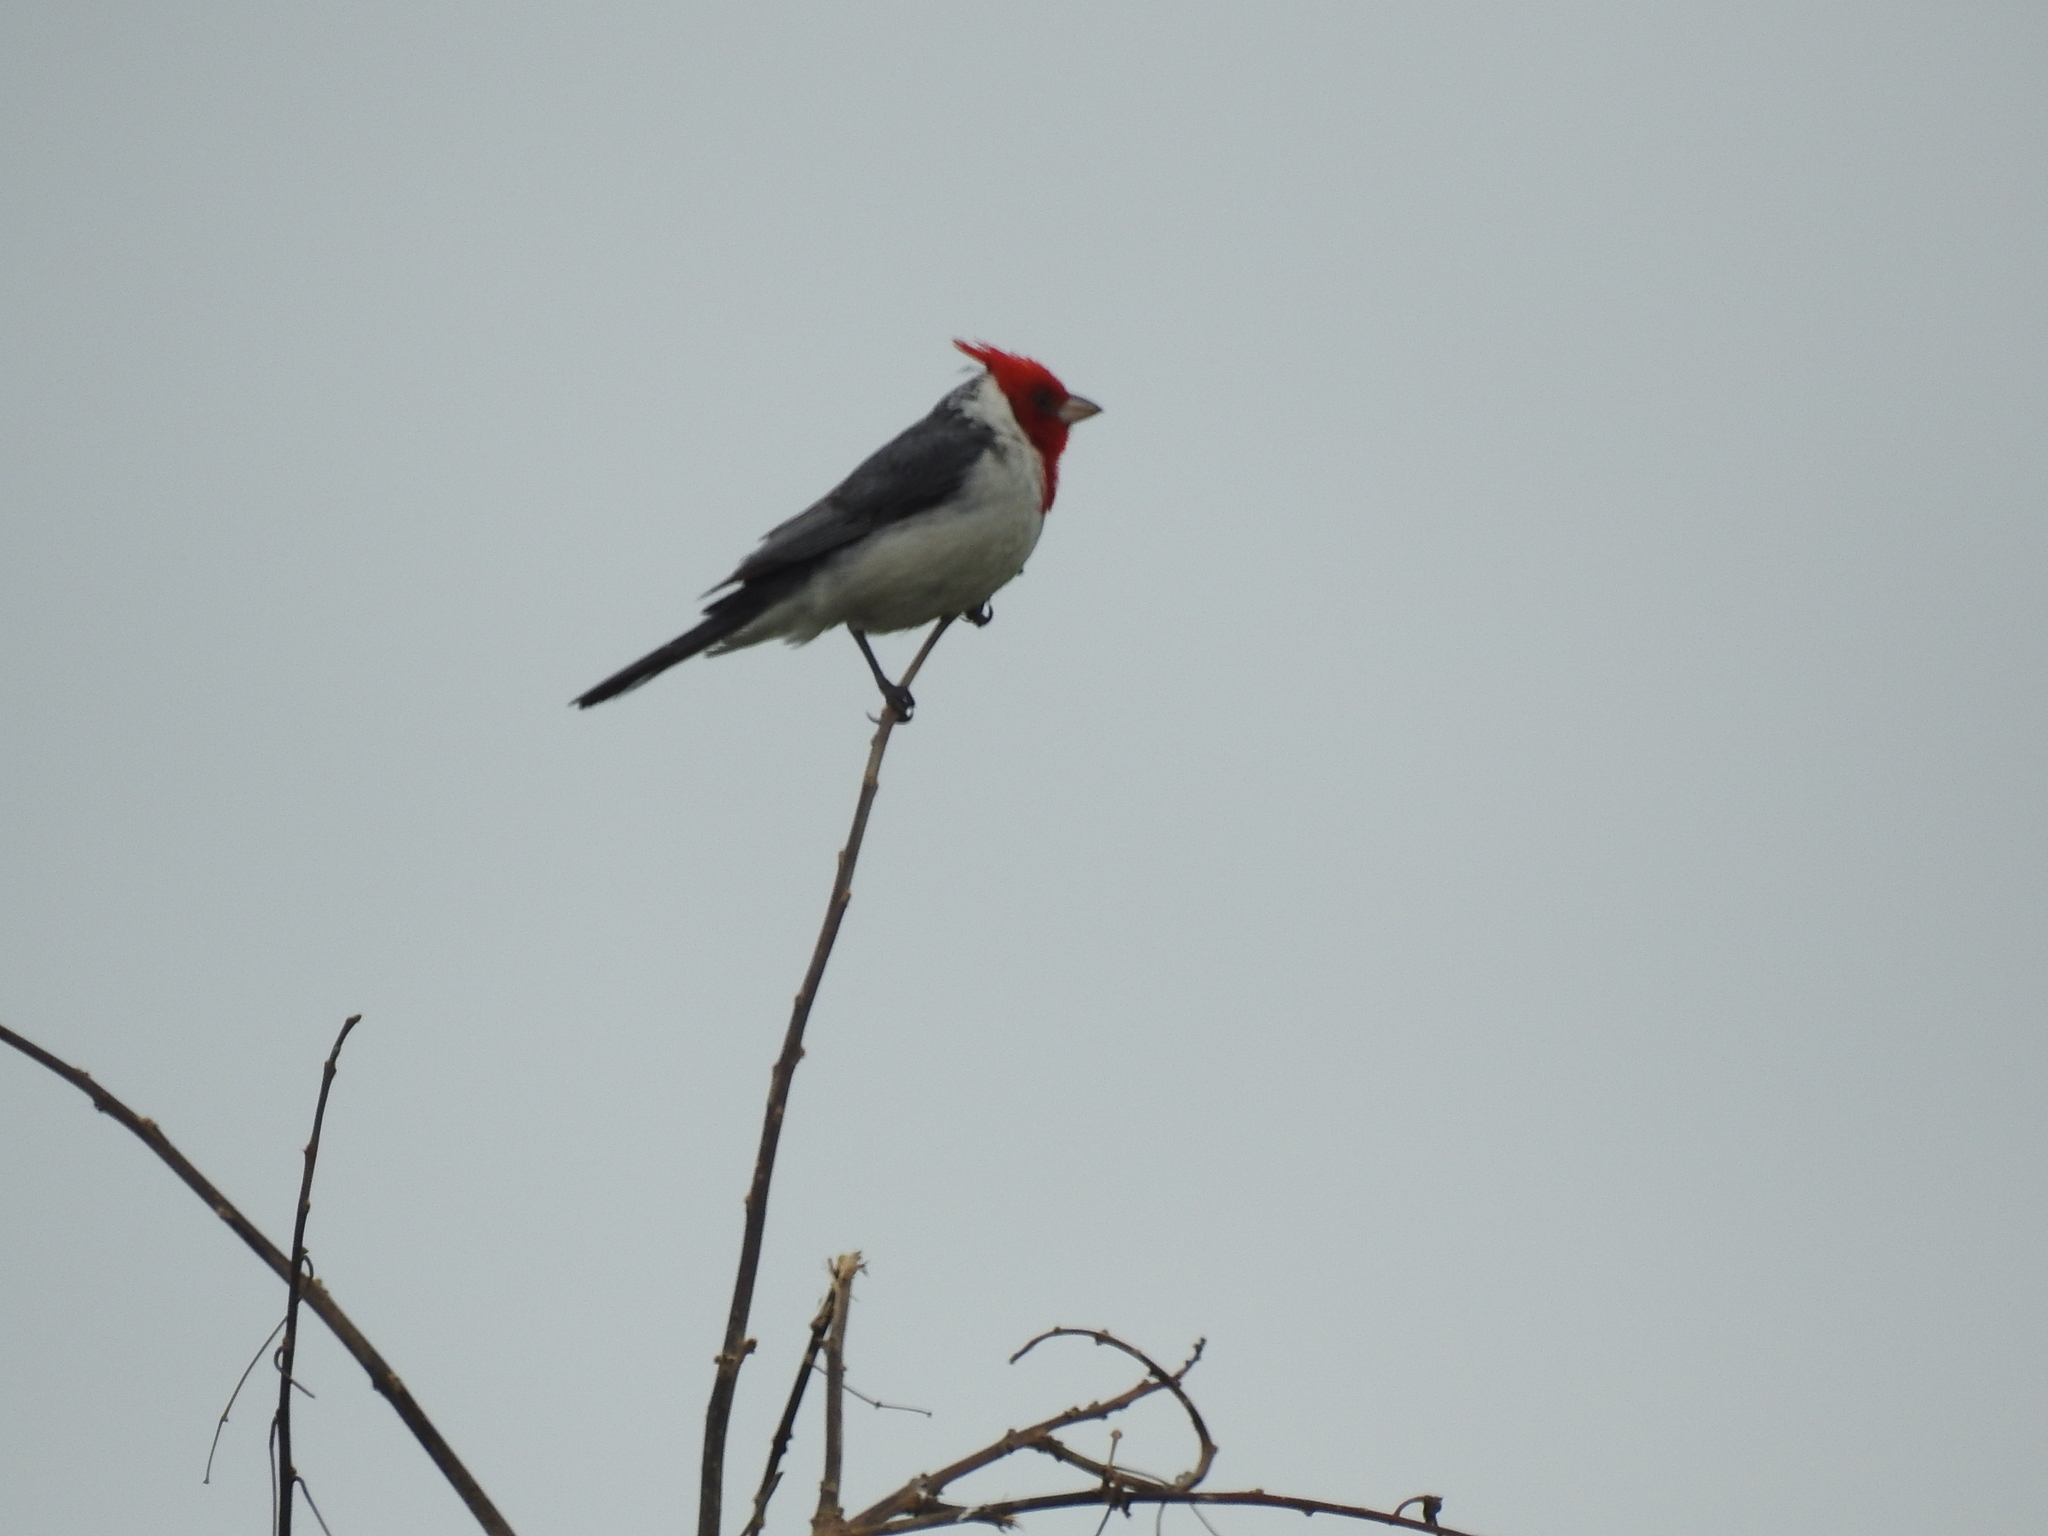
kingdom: Animalia
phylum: Chordata
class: Aves
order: Passeriformes
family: Thraupidae
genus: Paroaria
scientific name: Paroaria coronata
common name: Red-crested cardinal
